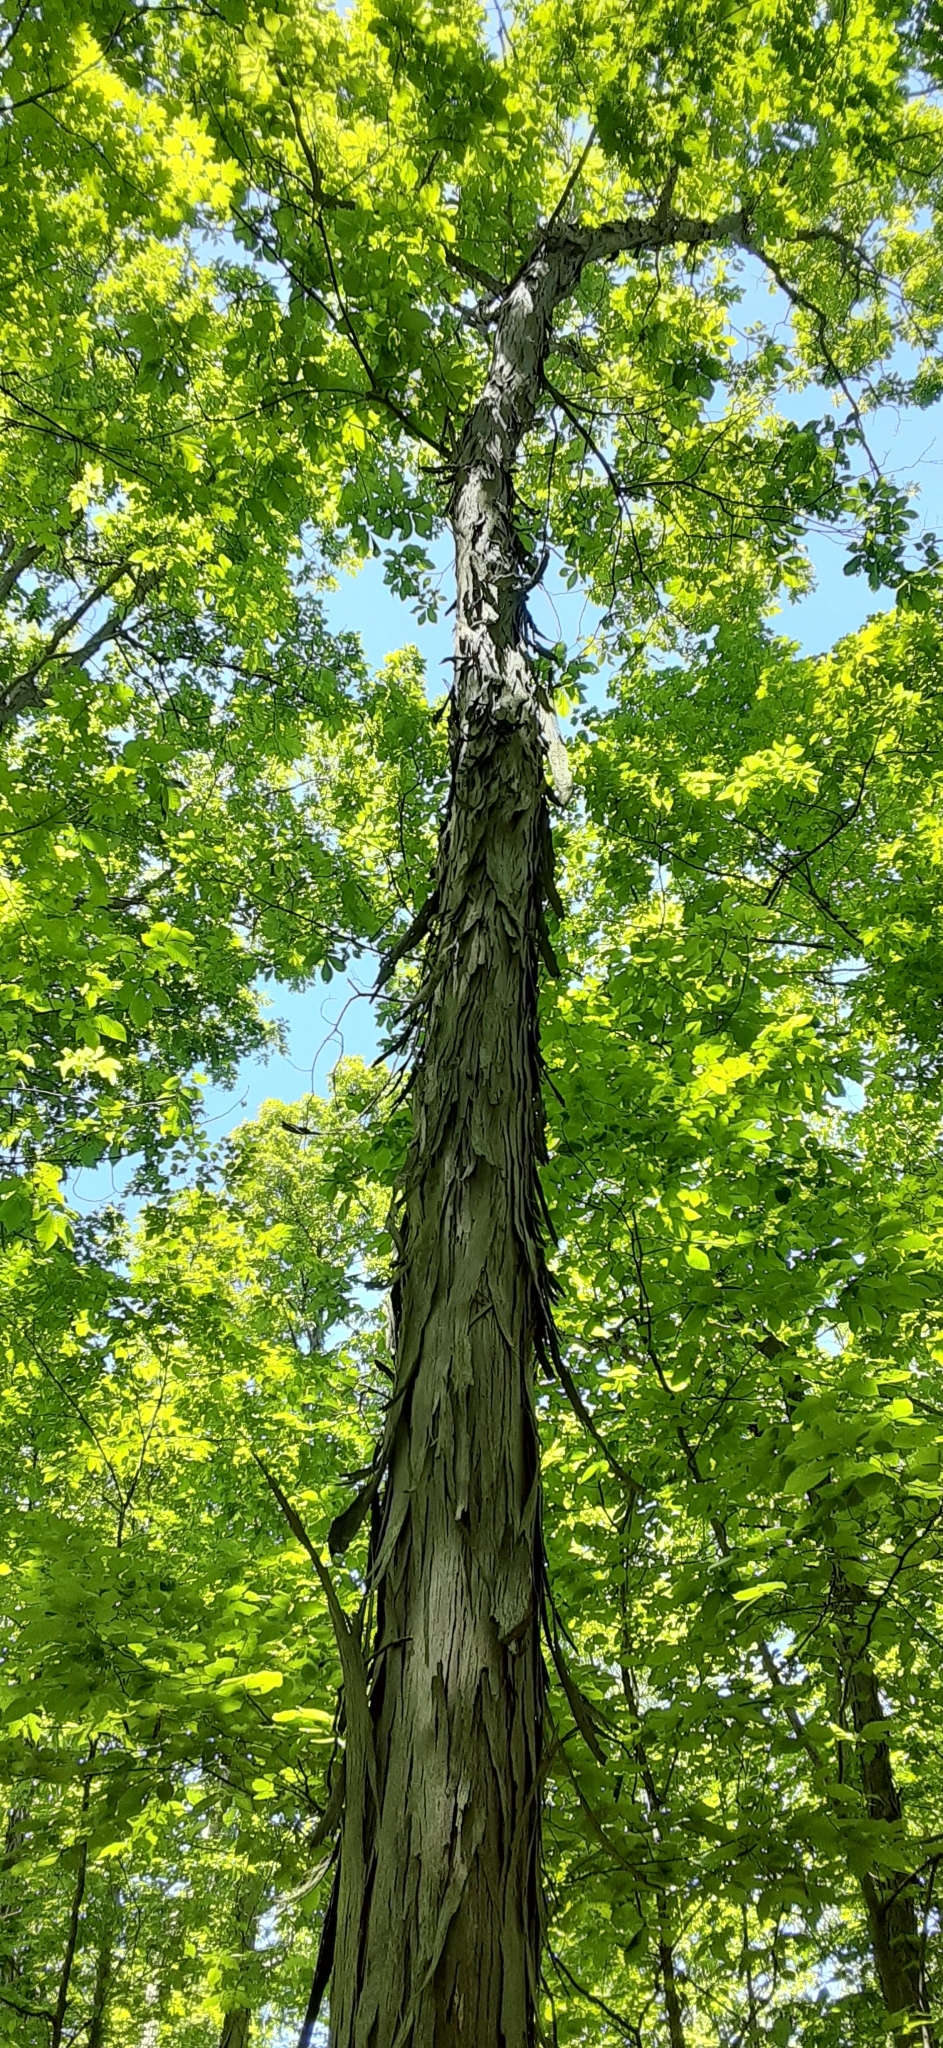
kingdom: Plantae
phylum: Tracheophyta
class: Magnoliopsida
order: Fagales
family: Juglandaceae
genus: Carya
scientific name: Carya ovata
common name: Shagbark hickory
